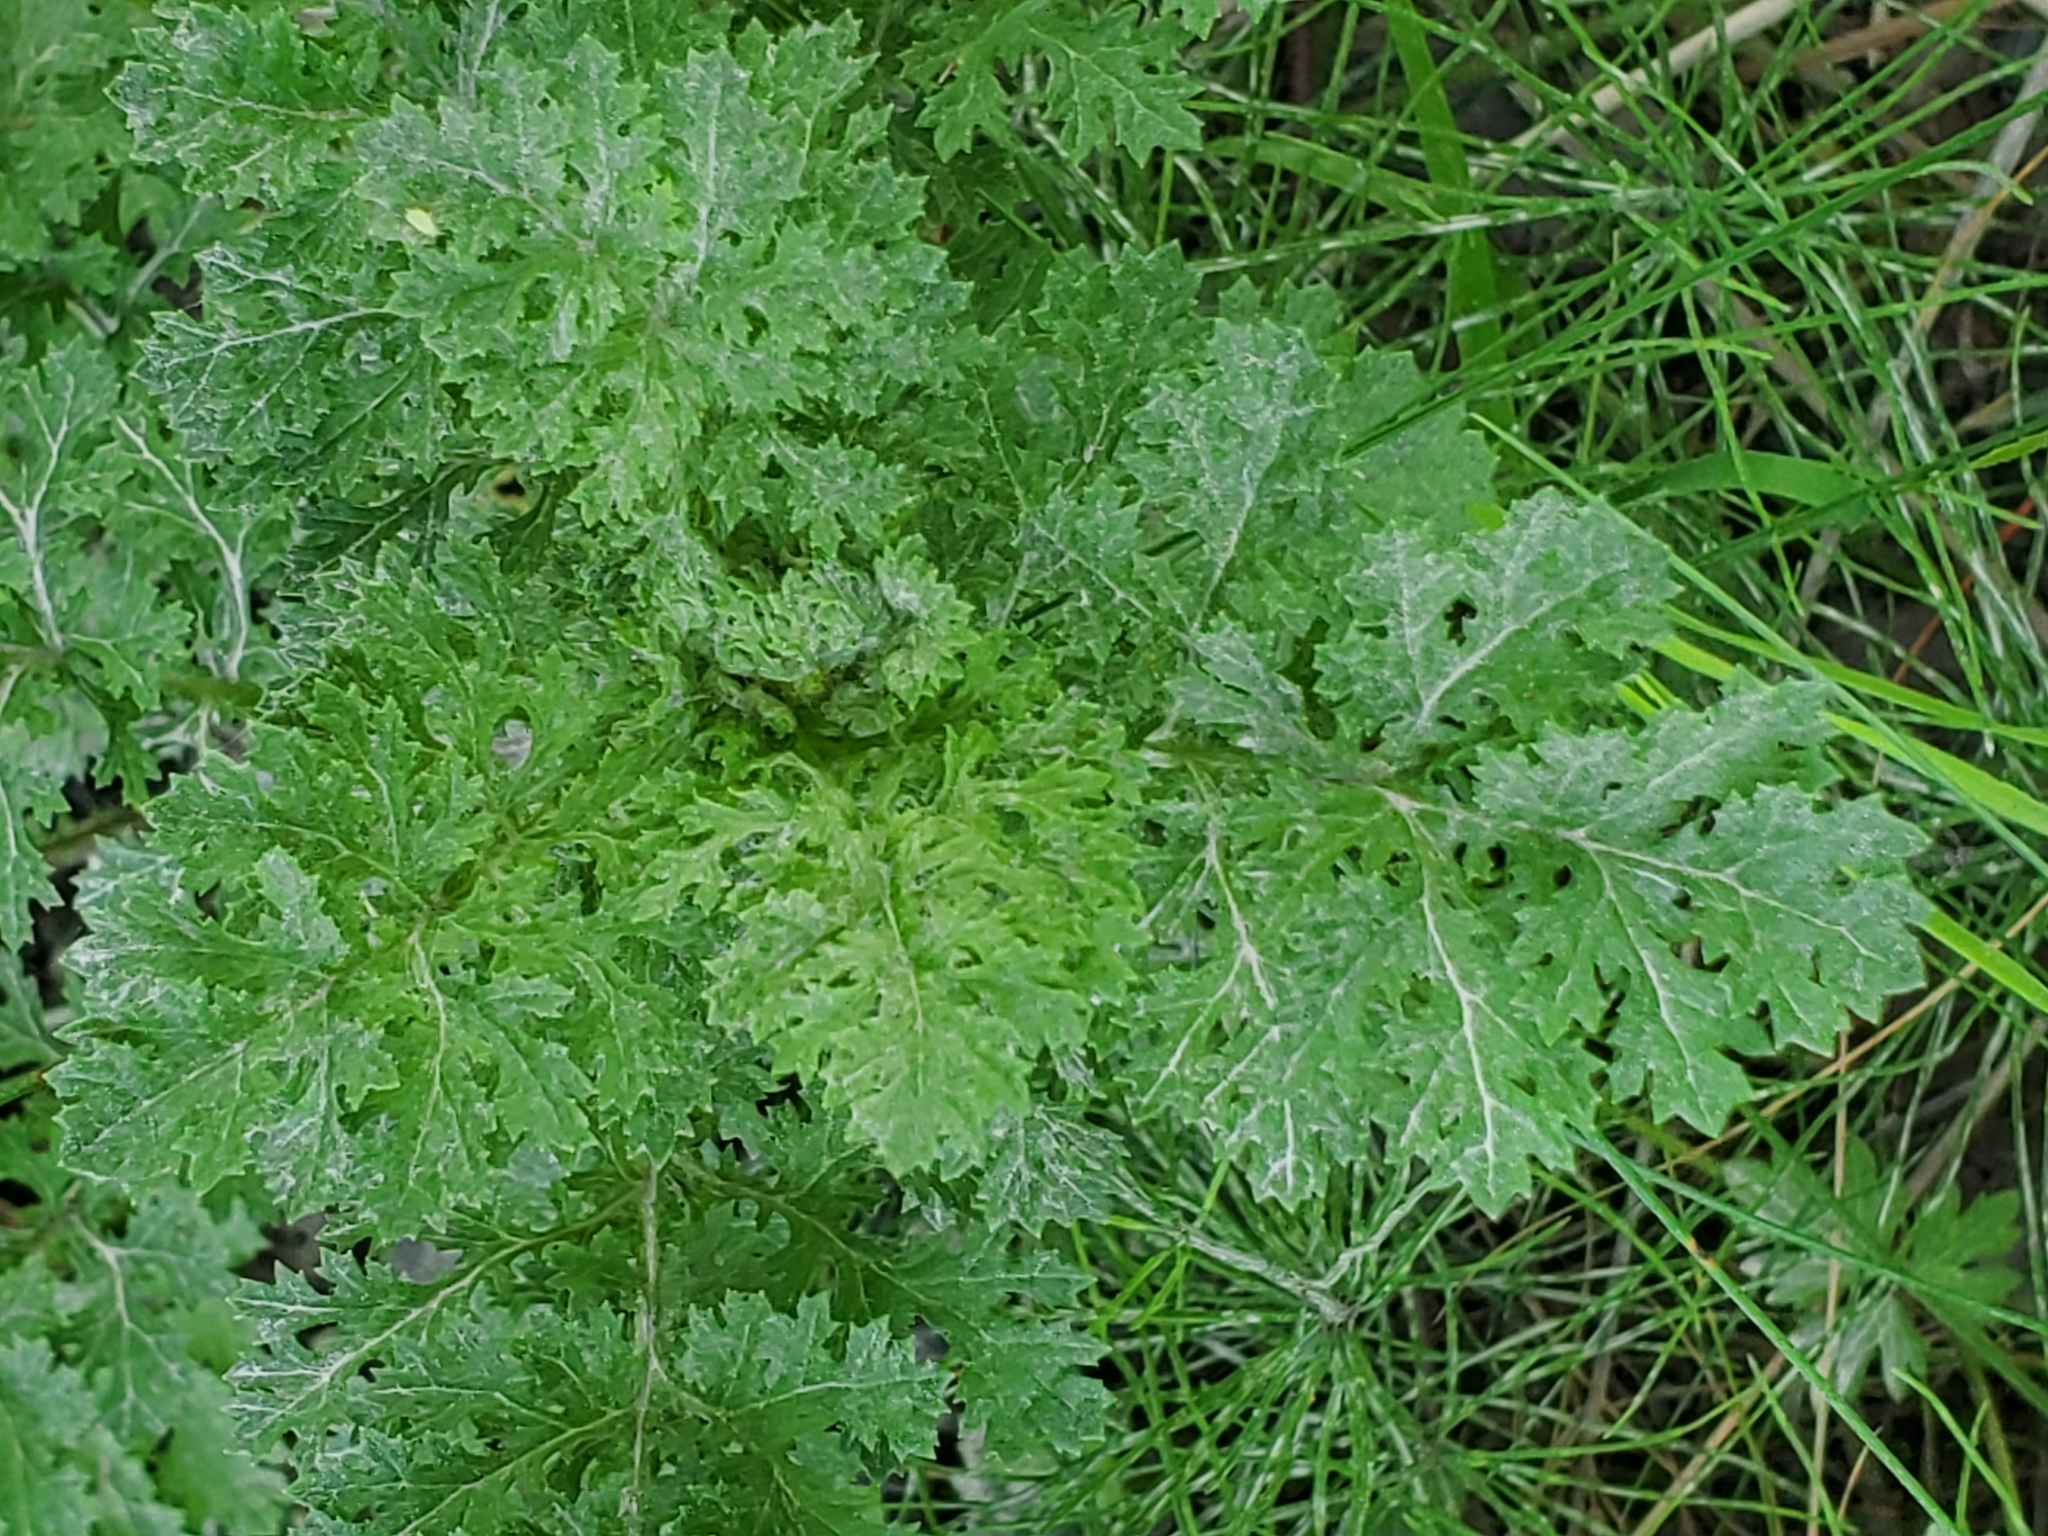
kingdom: Plantae
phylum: Tracheophyta
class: Magnoliopsida
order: Asterales
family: Asteraceae
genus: Jacobaea
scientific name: Jacobaea vulgaris
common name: Stinking willie
